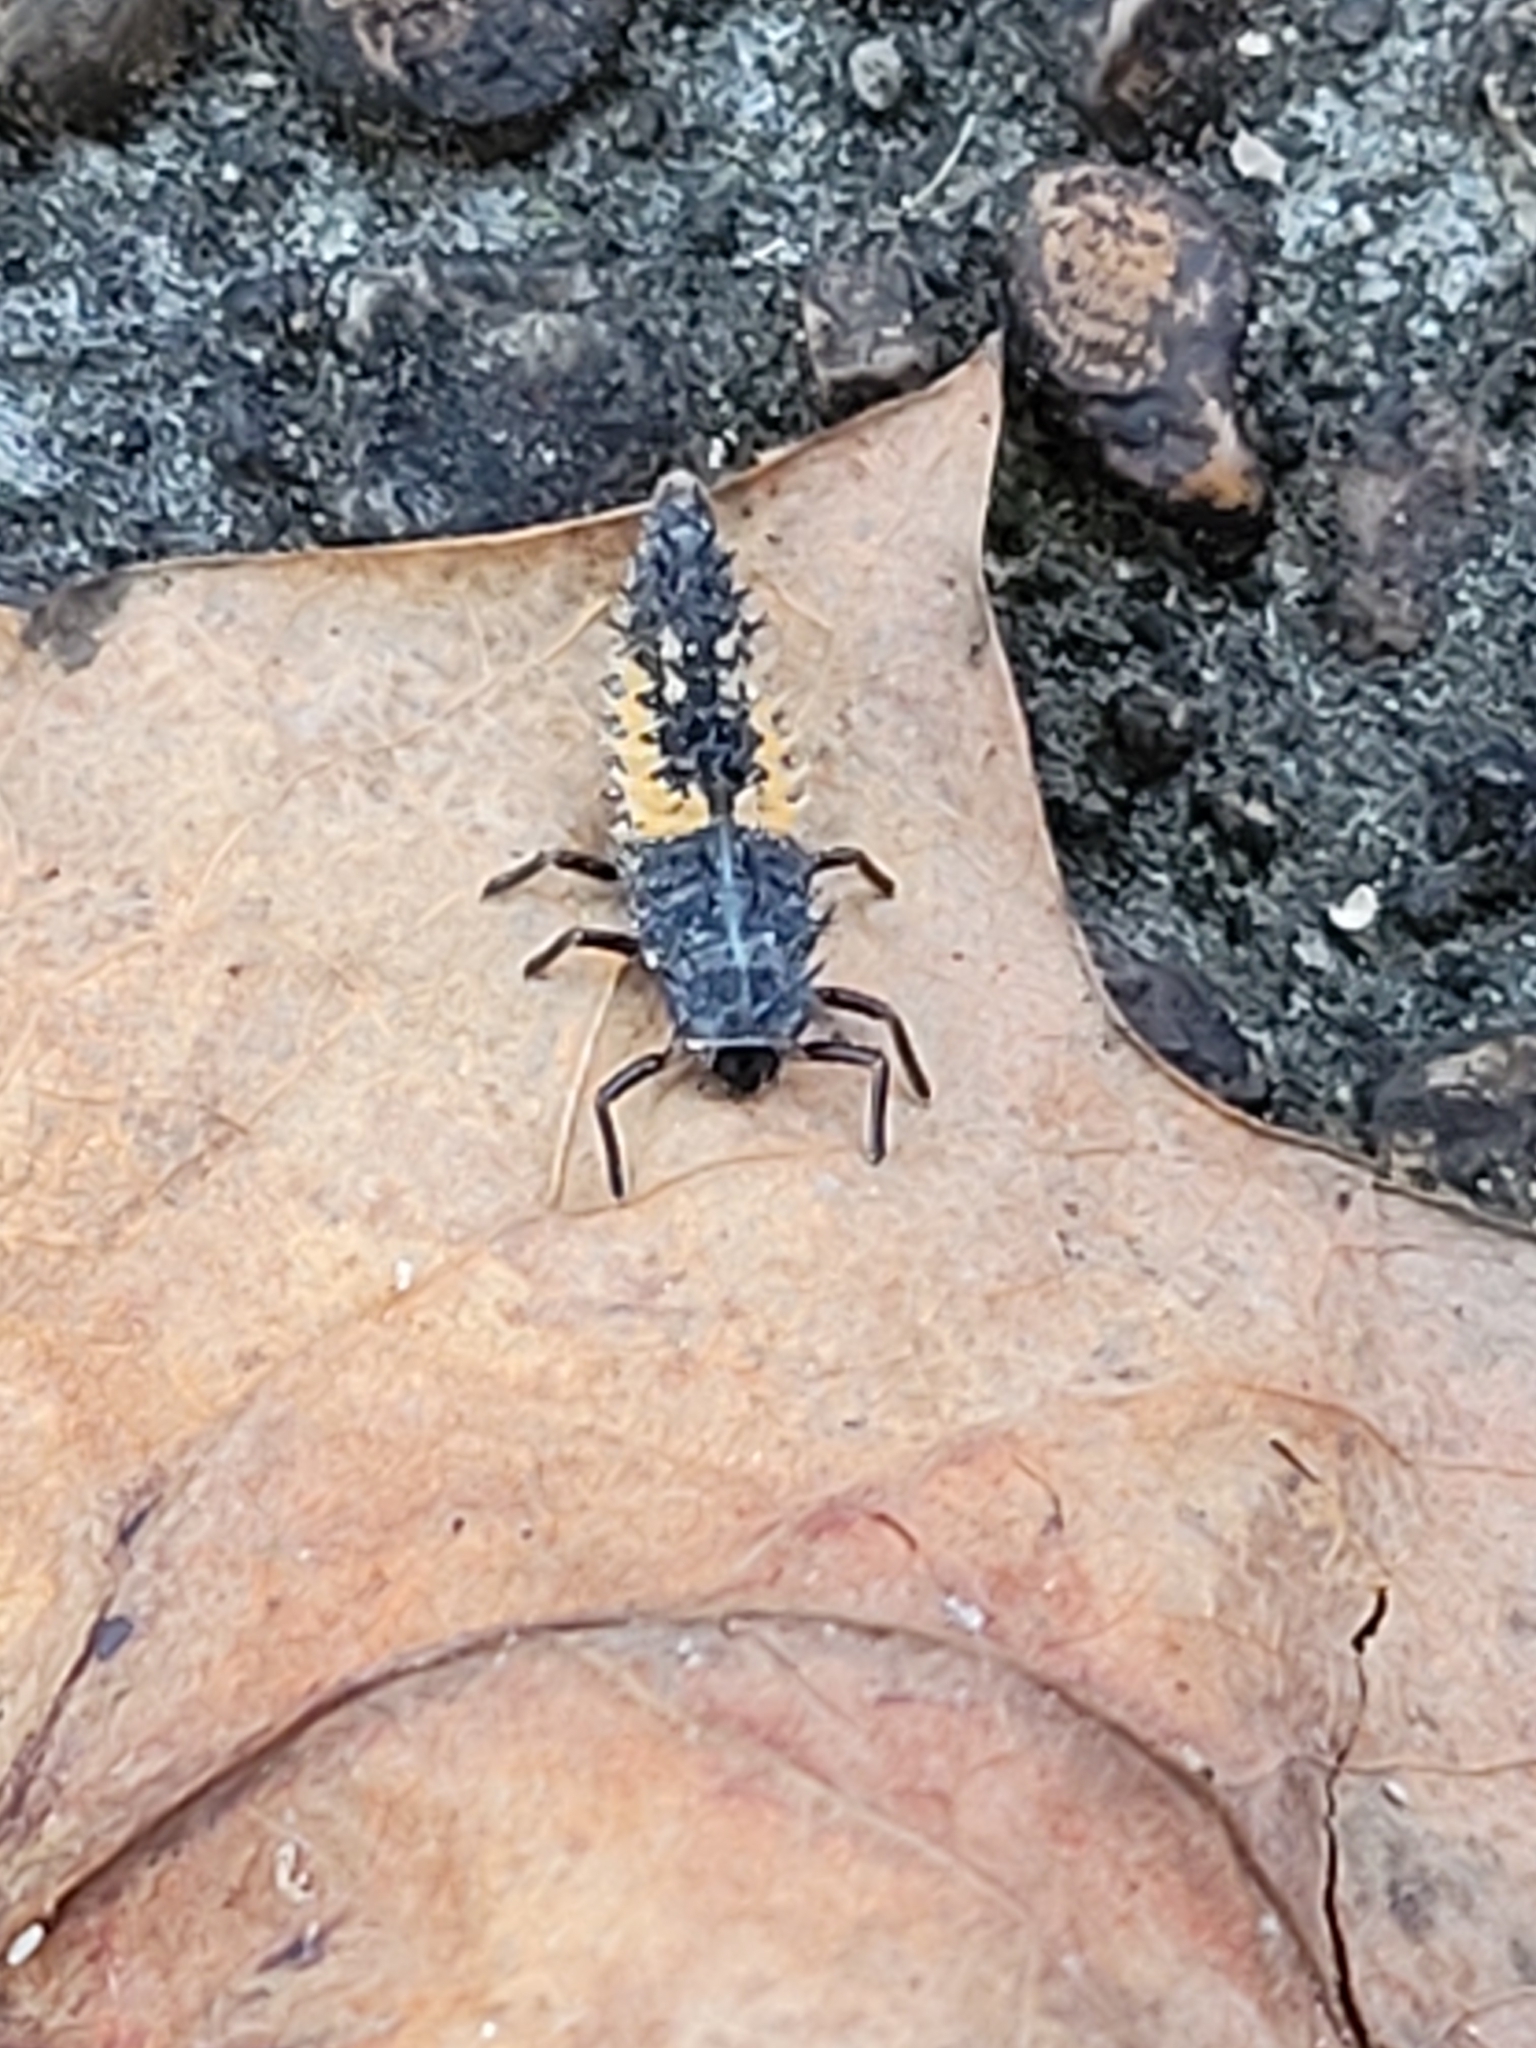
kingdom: Animalia
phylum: Arthropoda
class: Insecta
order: Coleoptera
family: Coccinellidae
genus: Harmonia
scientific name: Harmonia axyridis
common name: Harlequin ladybird
